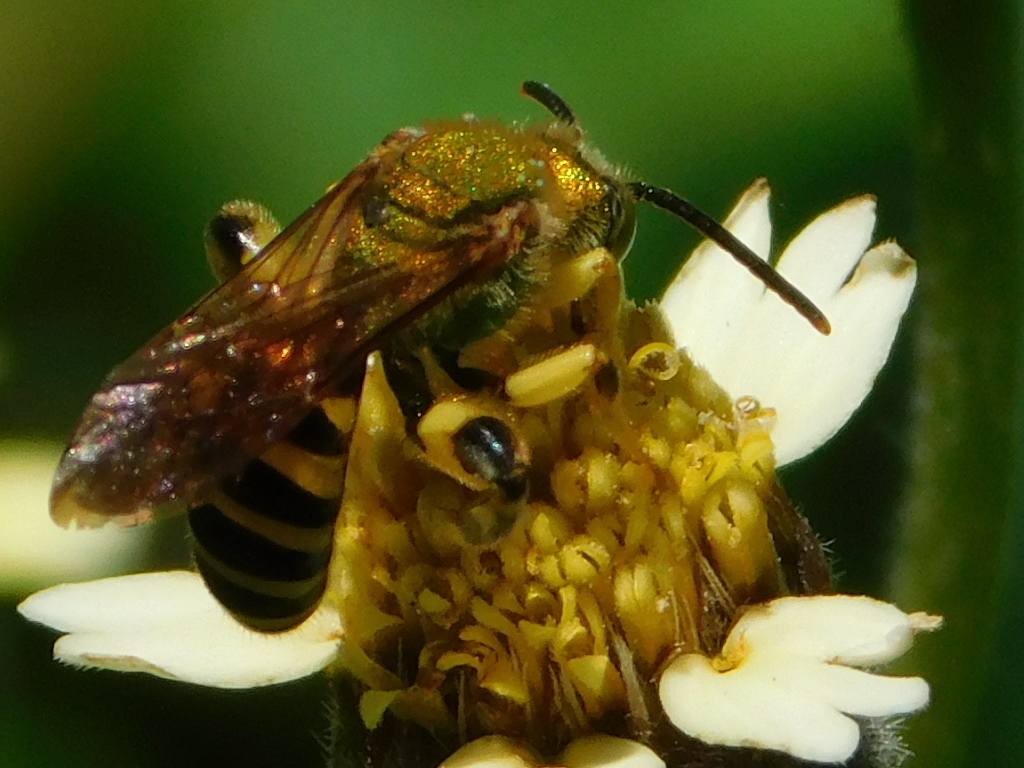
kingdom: Animalia
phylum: Arthropoda
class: Insecta
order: Hymenoptera
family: Halictidae
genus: Agapostemon
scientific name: Agapostemon splendens
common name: Brown-winged striped sweat bee
